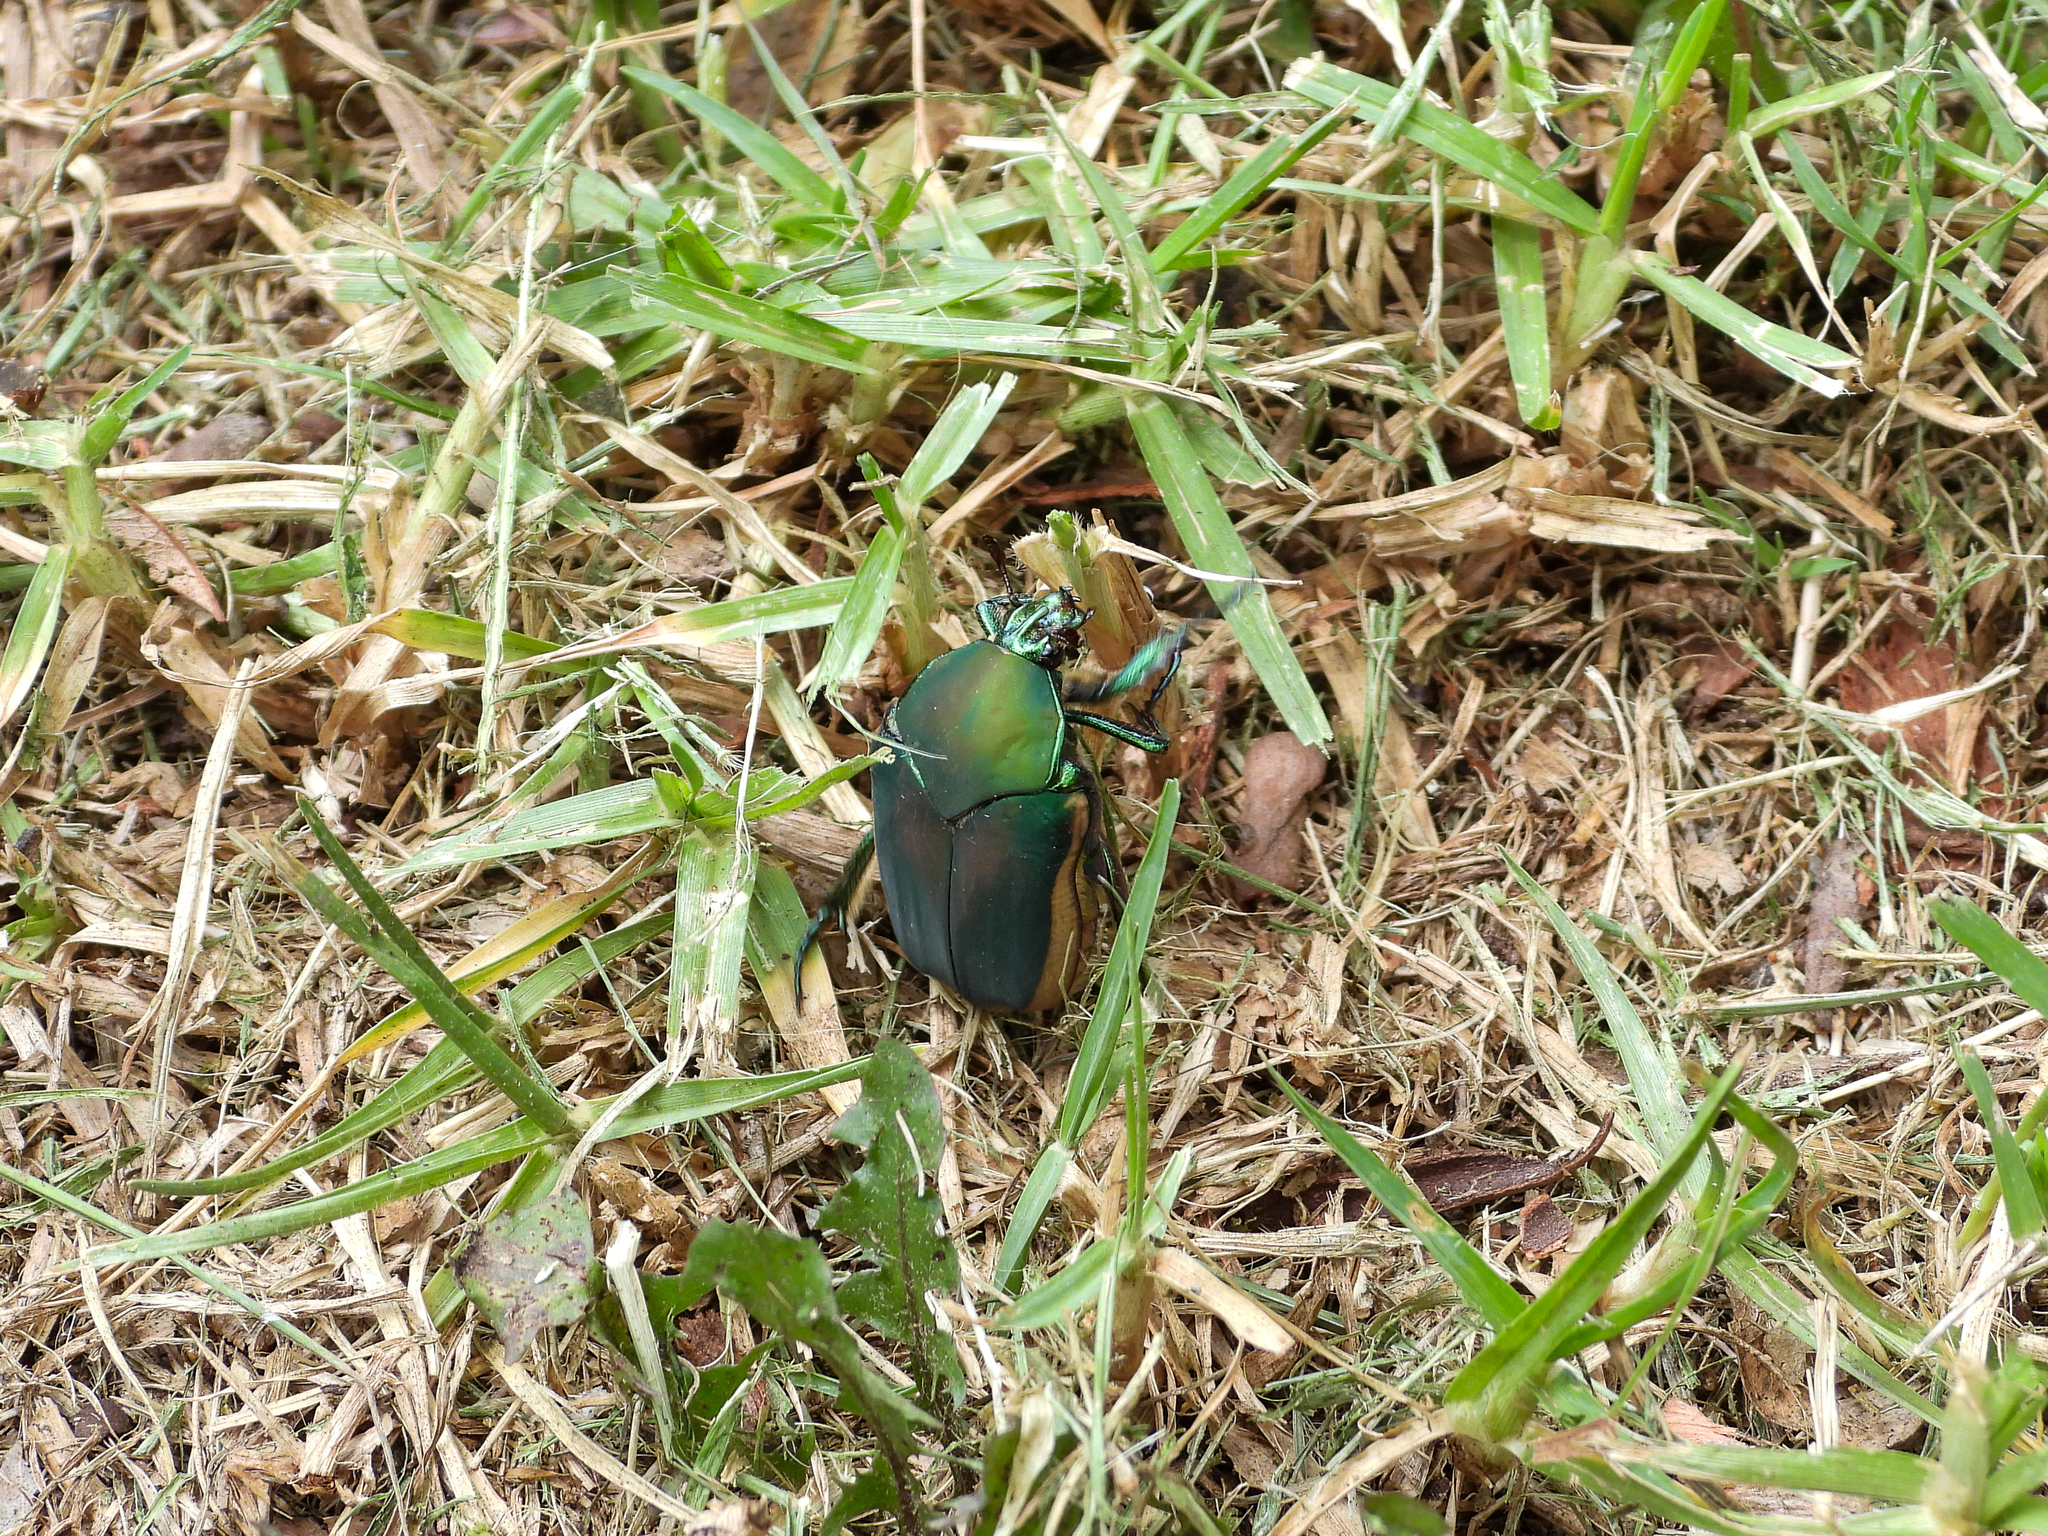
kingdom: Animalia
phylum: Arthropoda
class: Insecta
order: Coleoptera
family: Scarabaeidae
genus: Cotinis
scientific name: Cotinis mutabilis
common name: Figeater beetle
